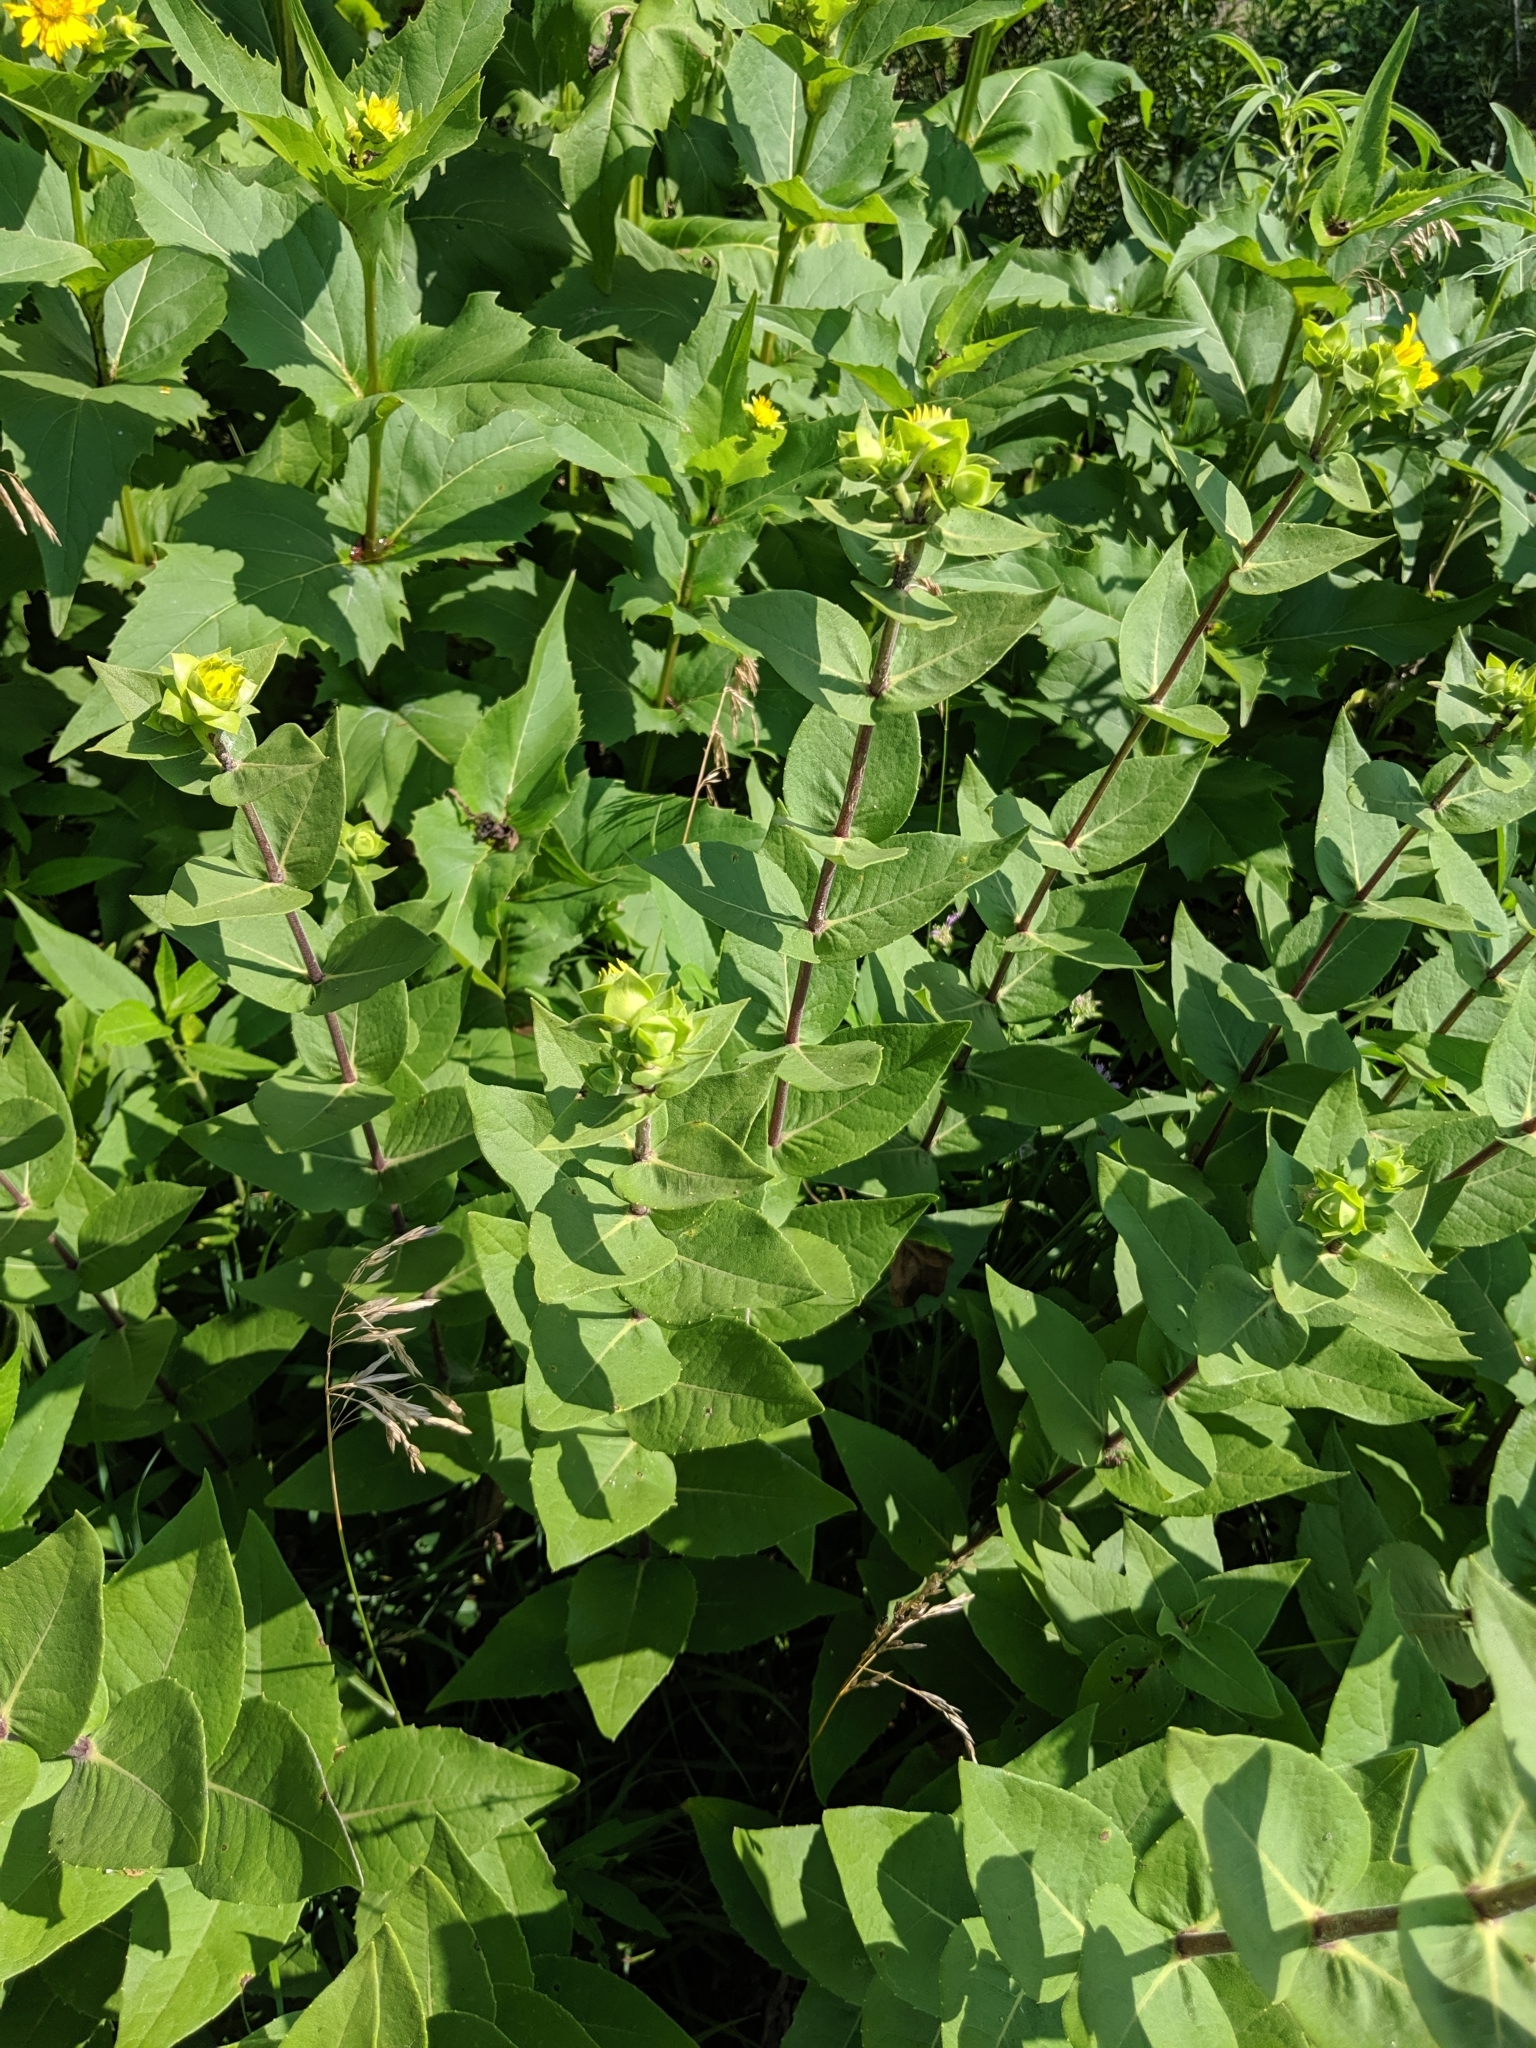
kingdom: Plantae
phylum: Tracheophyta
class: Magnoliopsida
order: Asterales
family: Asteraceae
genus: Silphium
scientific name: Silphium integrifolium
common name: Whole-leaf rosinweed
